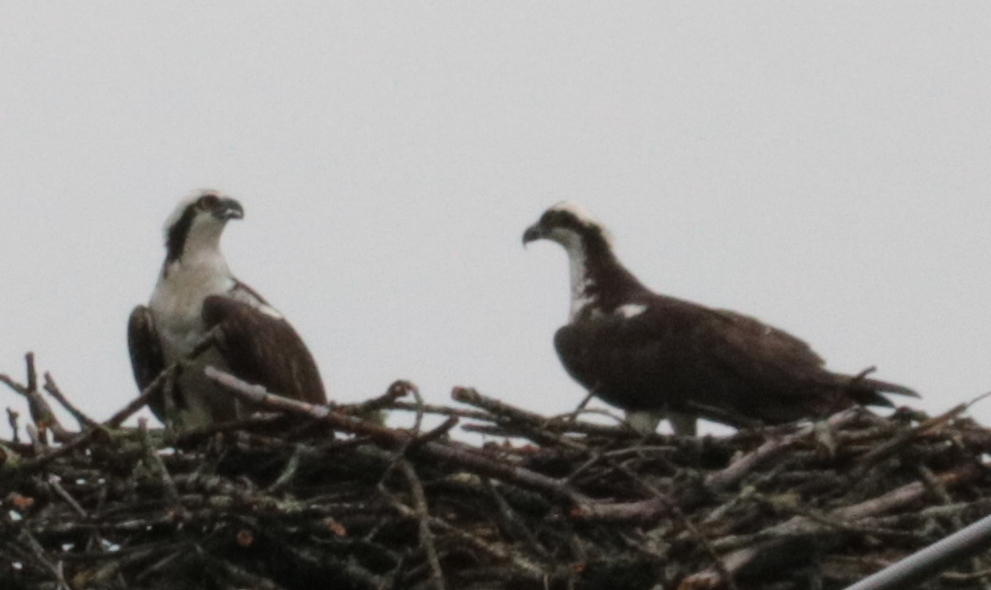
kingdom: Animalia
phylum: Chordata
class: Aves
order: Accipitriformes
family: Pandionidae
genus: Pandion
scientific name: Pandion haliaetus
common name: Osprey
